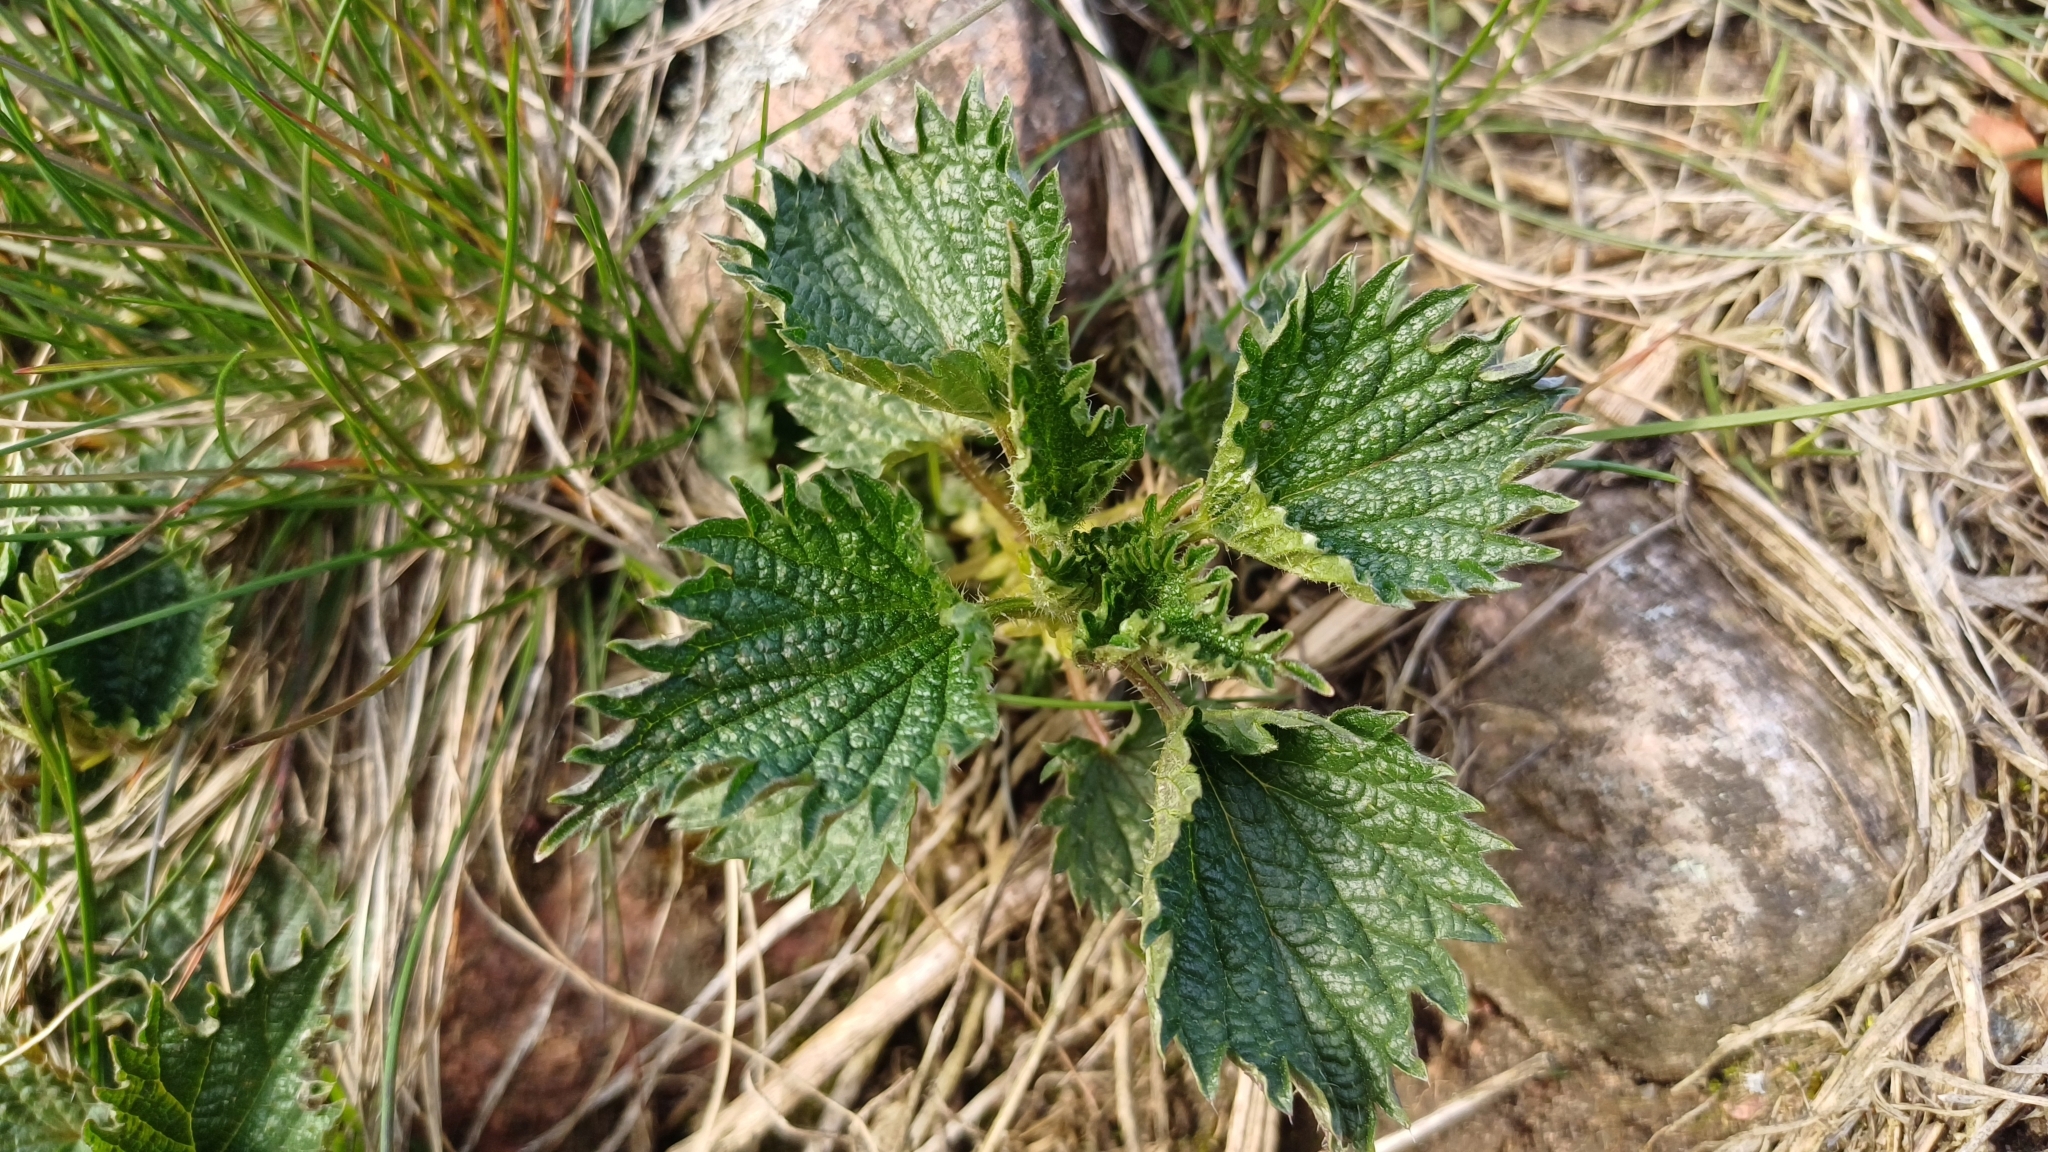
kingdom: Plantae
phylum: Tracheophyta
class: Magnoliopsida
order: Rosales
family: Urticaceae
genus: Urtica
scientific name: Urtica dioica
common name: Common nettle
